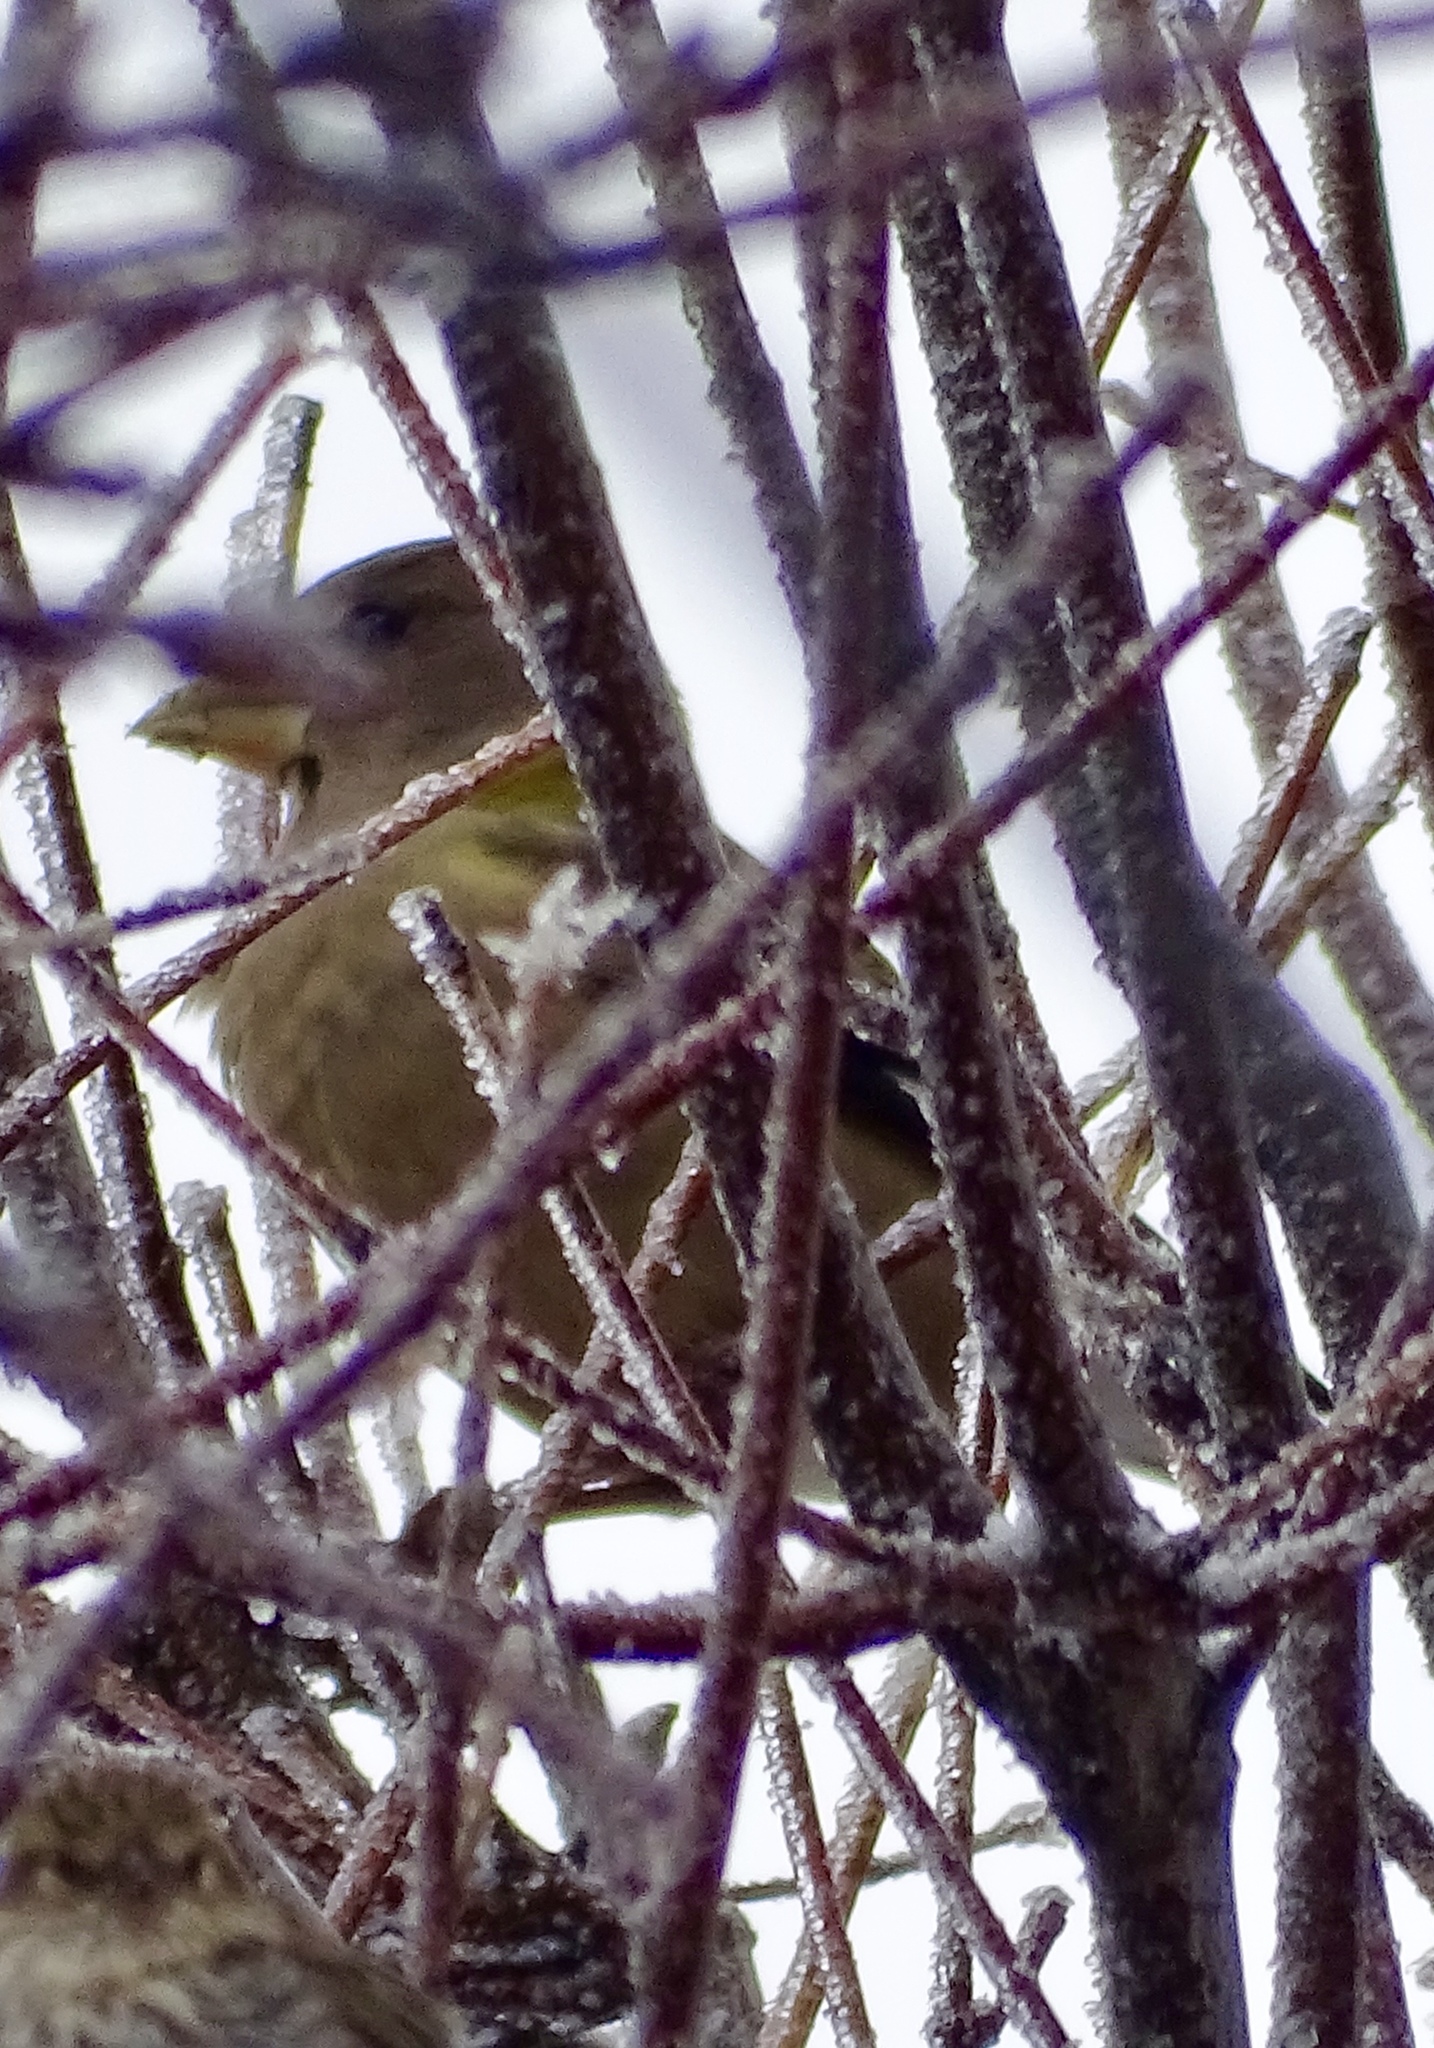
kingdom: Animalia
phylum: Chordata
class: Aves
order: Passeriformes
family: Fringillidae
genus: Hesperiphona
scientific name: Hesperiphona vespertina
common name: Evening grosbeak
